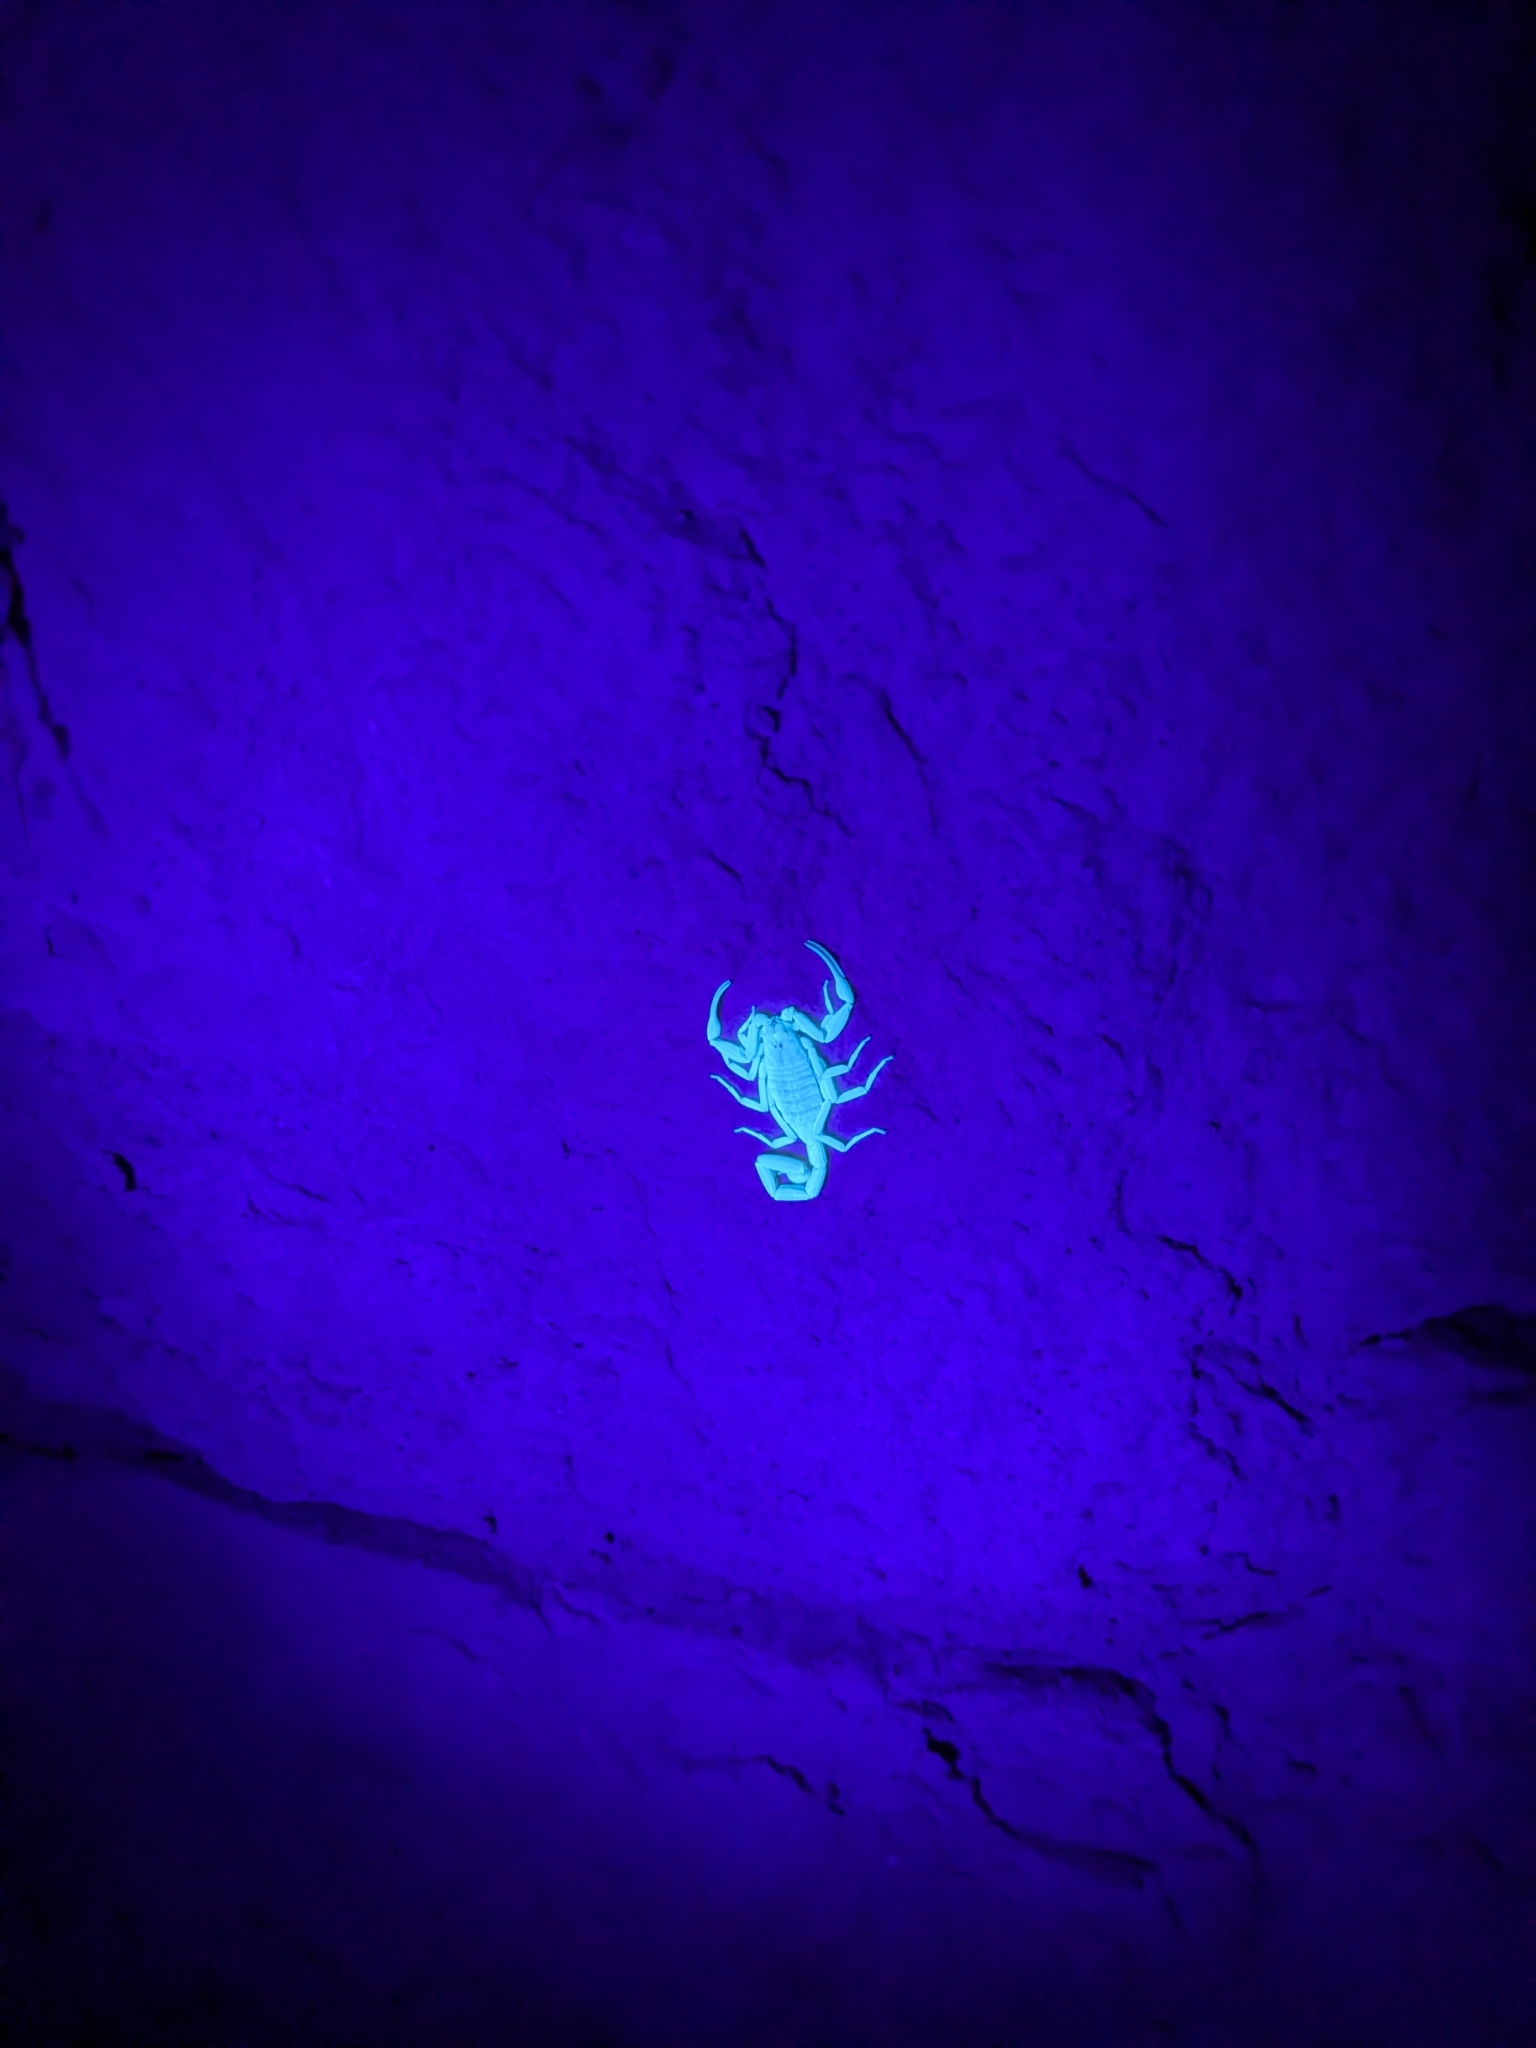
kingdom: Animalia
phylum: Arthropoda
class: Arachnida
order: Scorpiones
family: Buthidae
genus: Centruroides
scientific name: Centruroides sculpturatus
